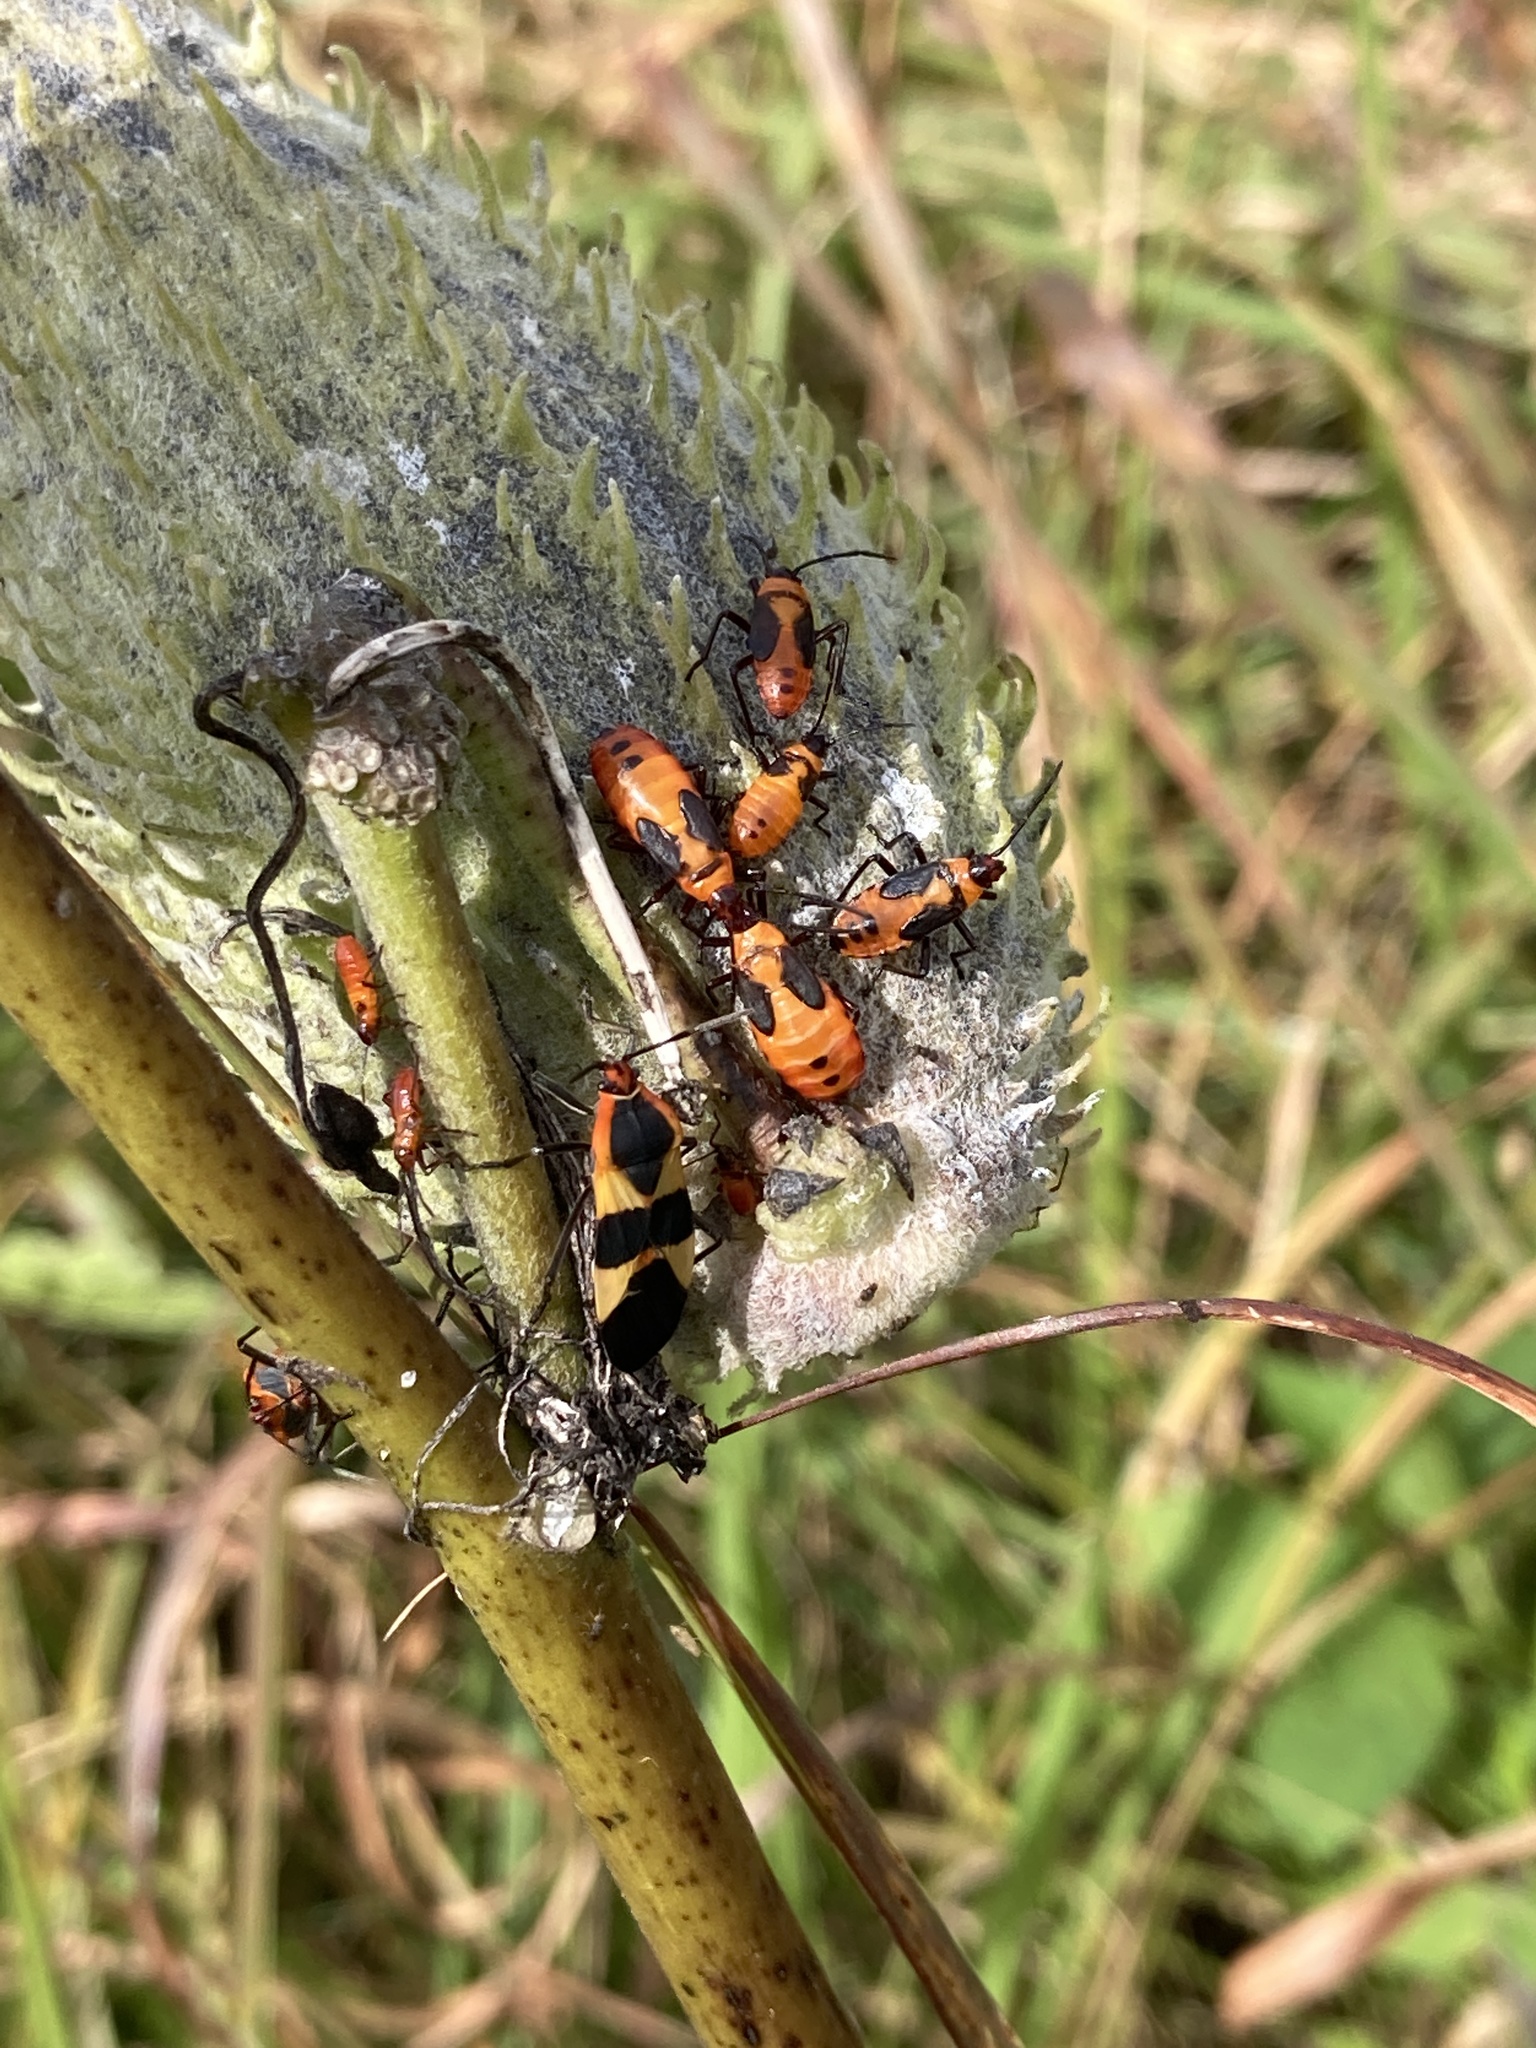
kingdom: Animalia
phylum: Arthropoda
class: Insecta
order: Hemiptera
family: Lygaeidae
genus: Oncopeltus
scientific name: Oncopeltus fasciatus
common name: Large milkweed bug
